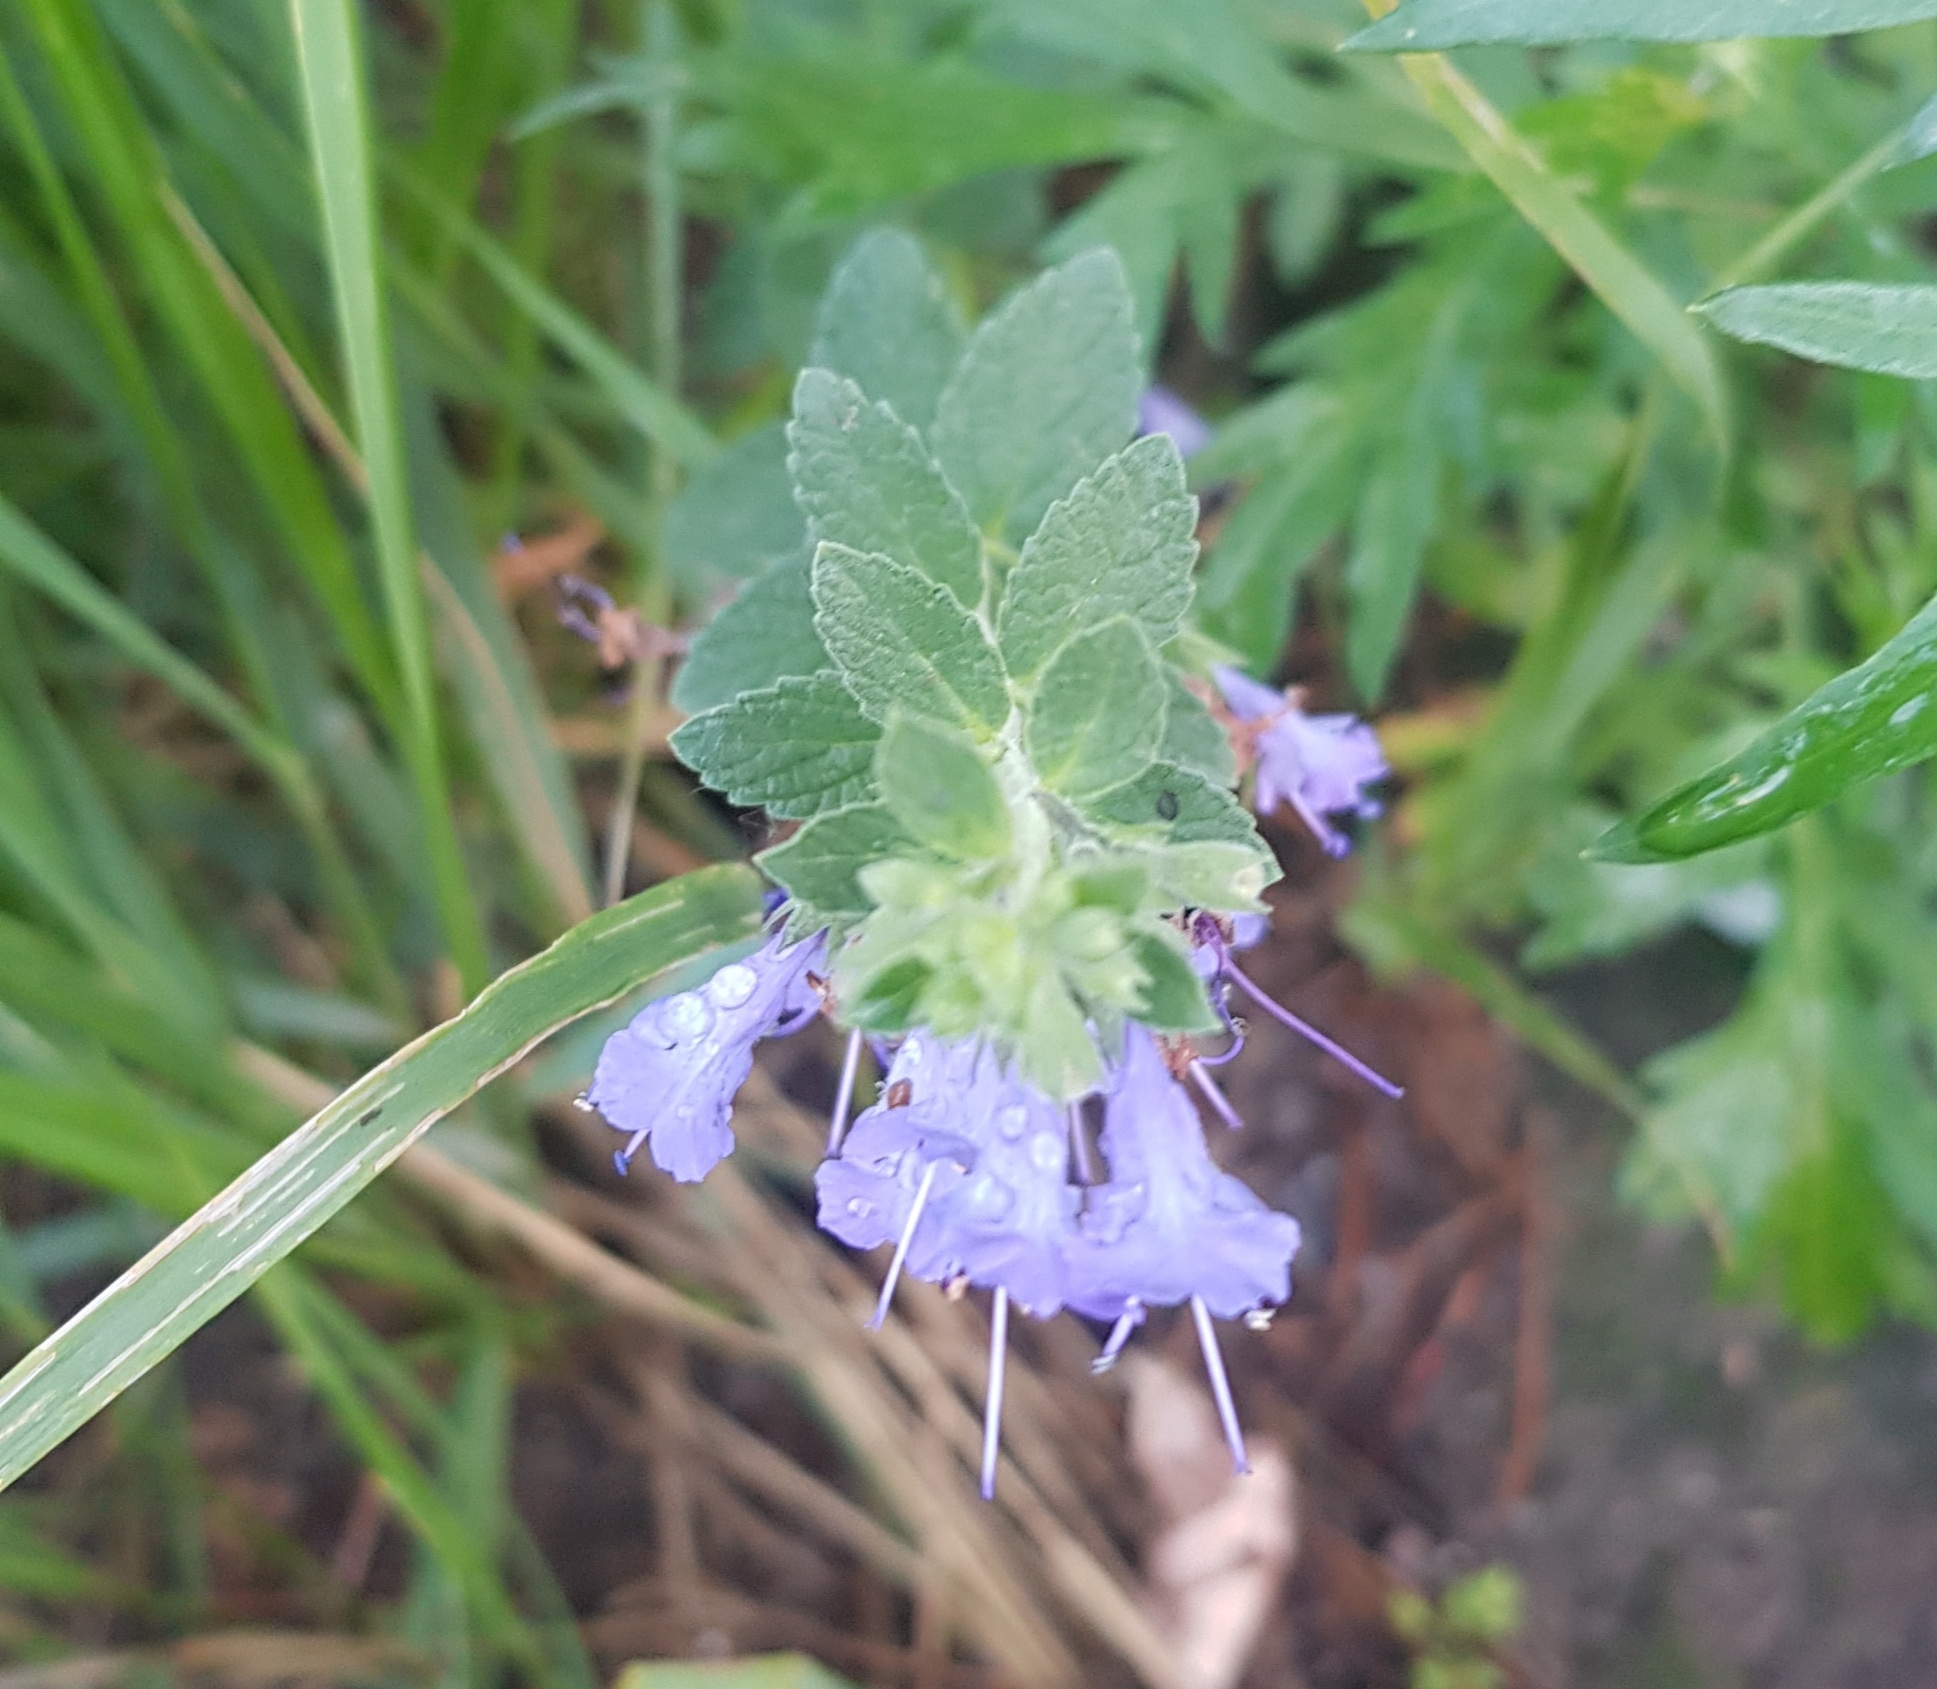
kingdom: Plantae
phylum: Tracheophyta
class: Magnoliopsida
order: Lamiales
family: Lamiaceae
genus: Nepeta
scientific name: Nepeta lophanthus
